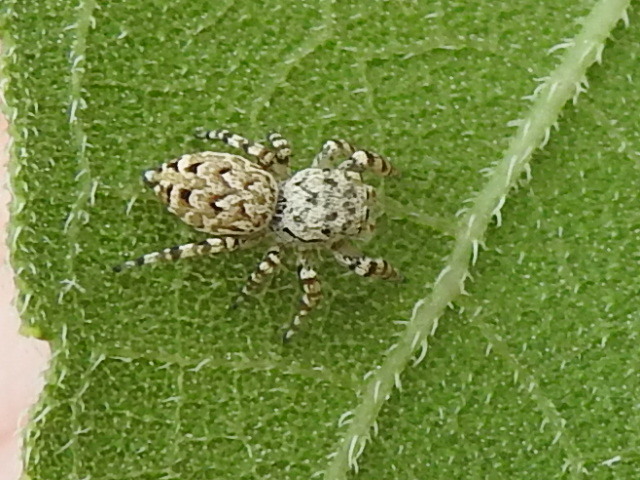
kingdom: Animalia
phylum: Arthropoda
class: Arachnida
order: Araneae
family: Salticidae
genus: Pelegrina
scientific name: Pelegrina galathea
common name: Jumping spiders
